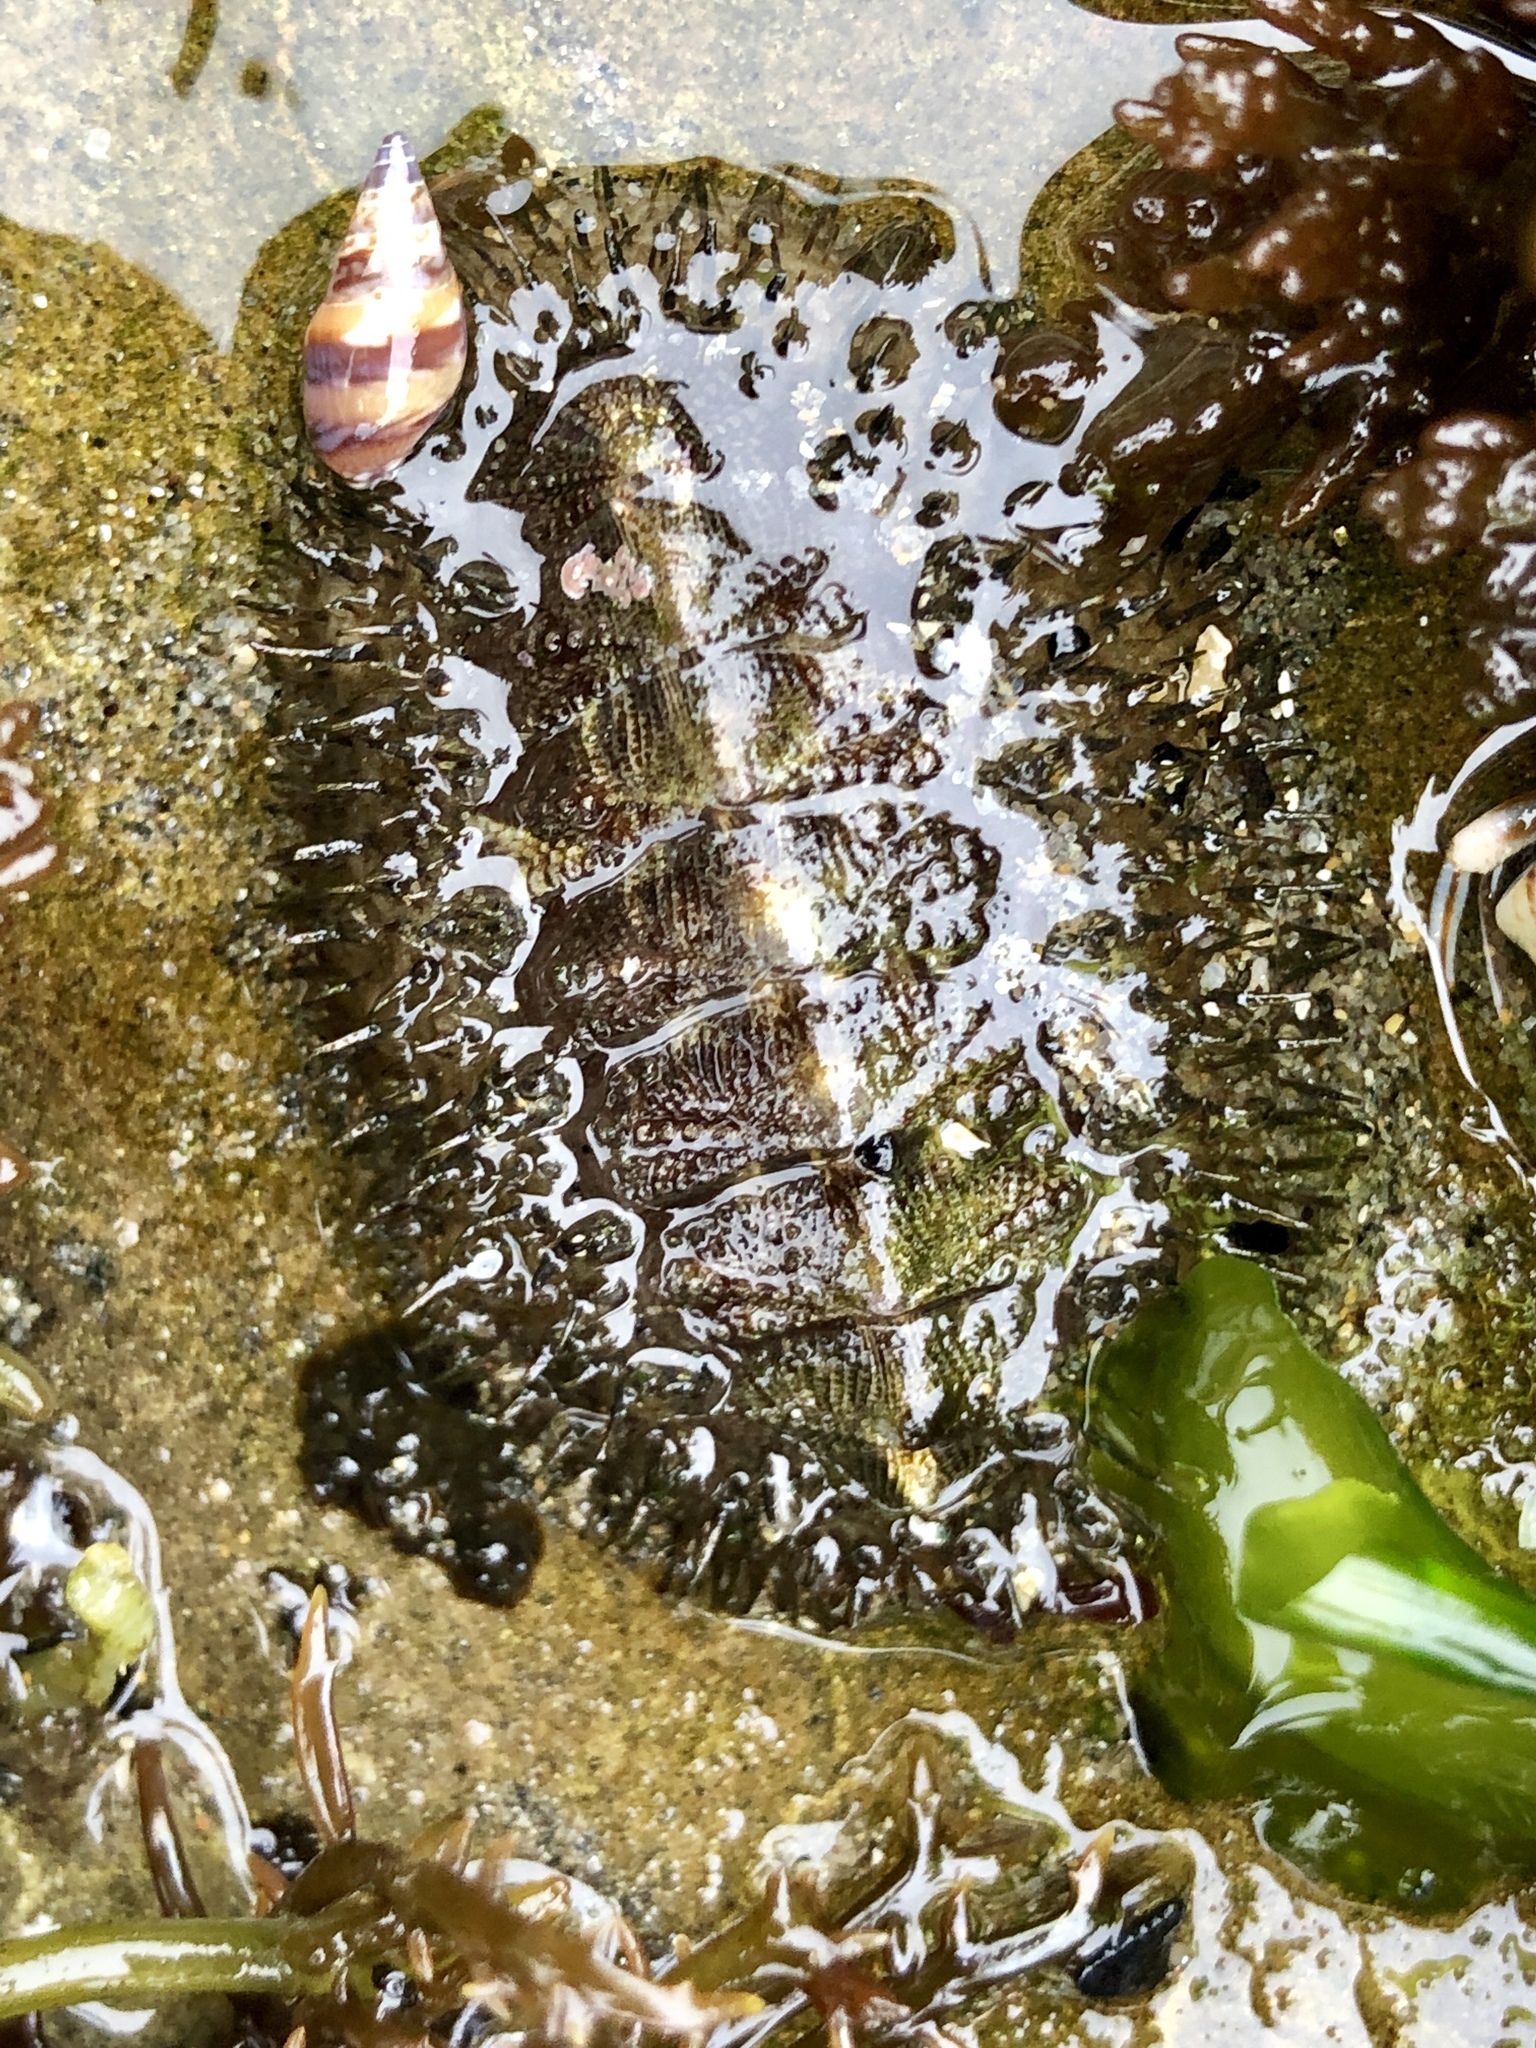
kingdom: Animalia
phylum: Mollusca
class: Polyplacophora
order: Chitonida
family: Mopaliidae
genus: Mopalia
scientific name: Mopalia muscosa
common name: Mossy chiton
